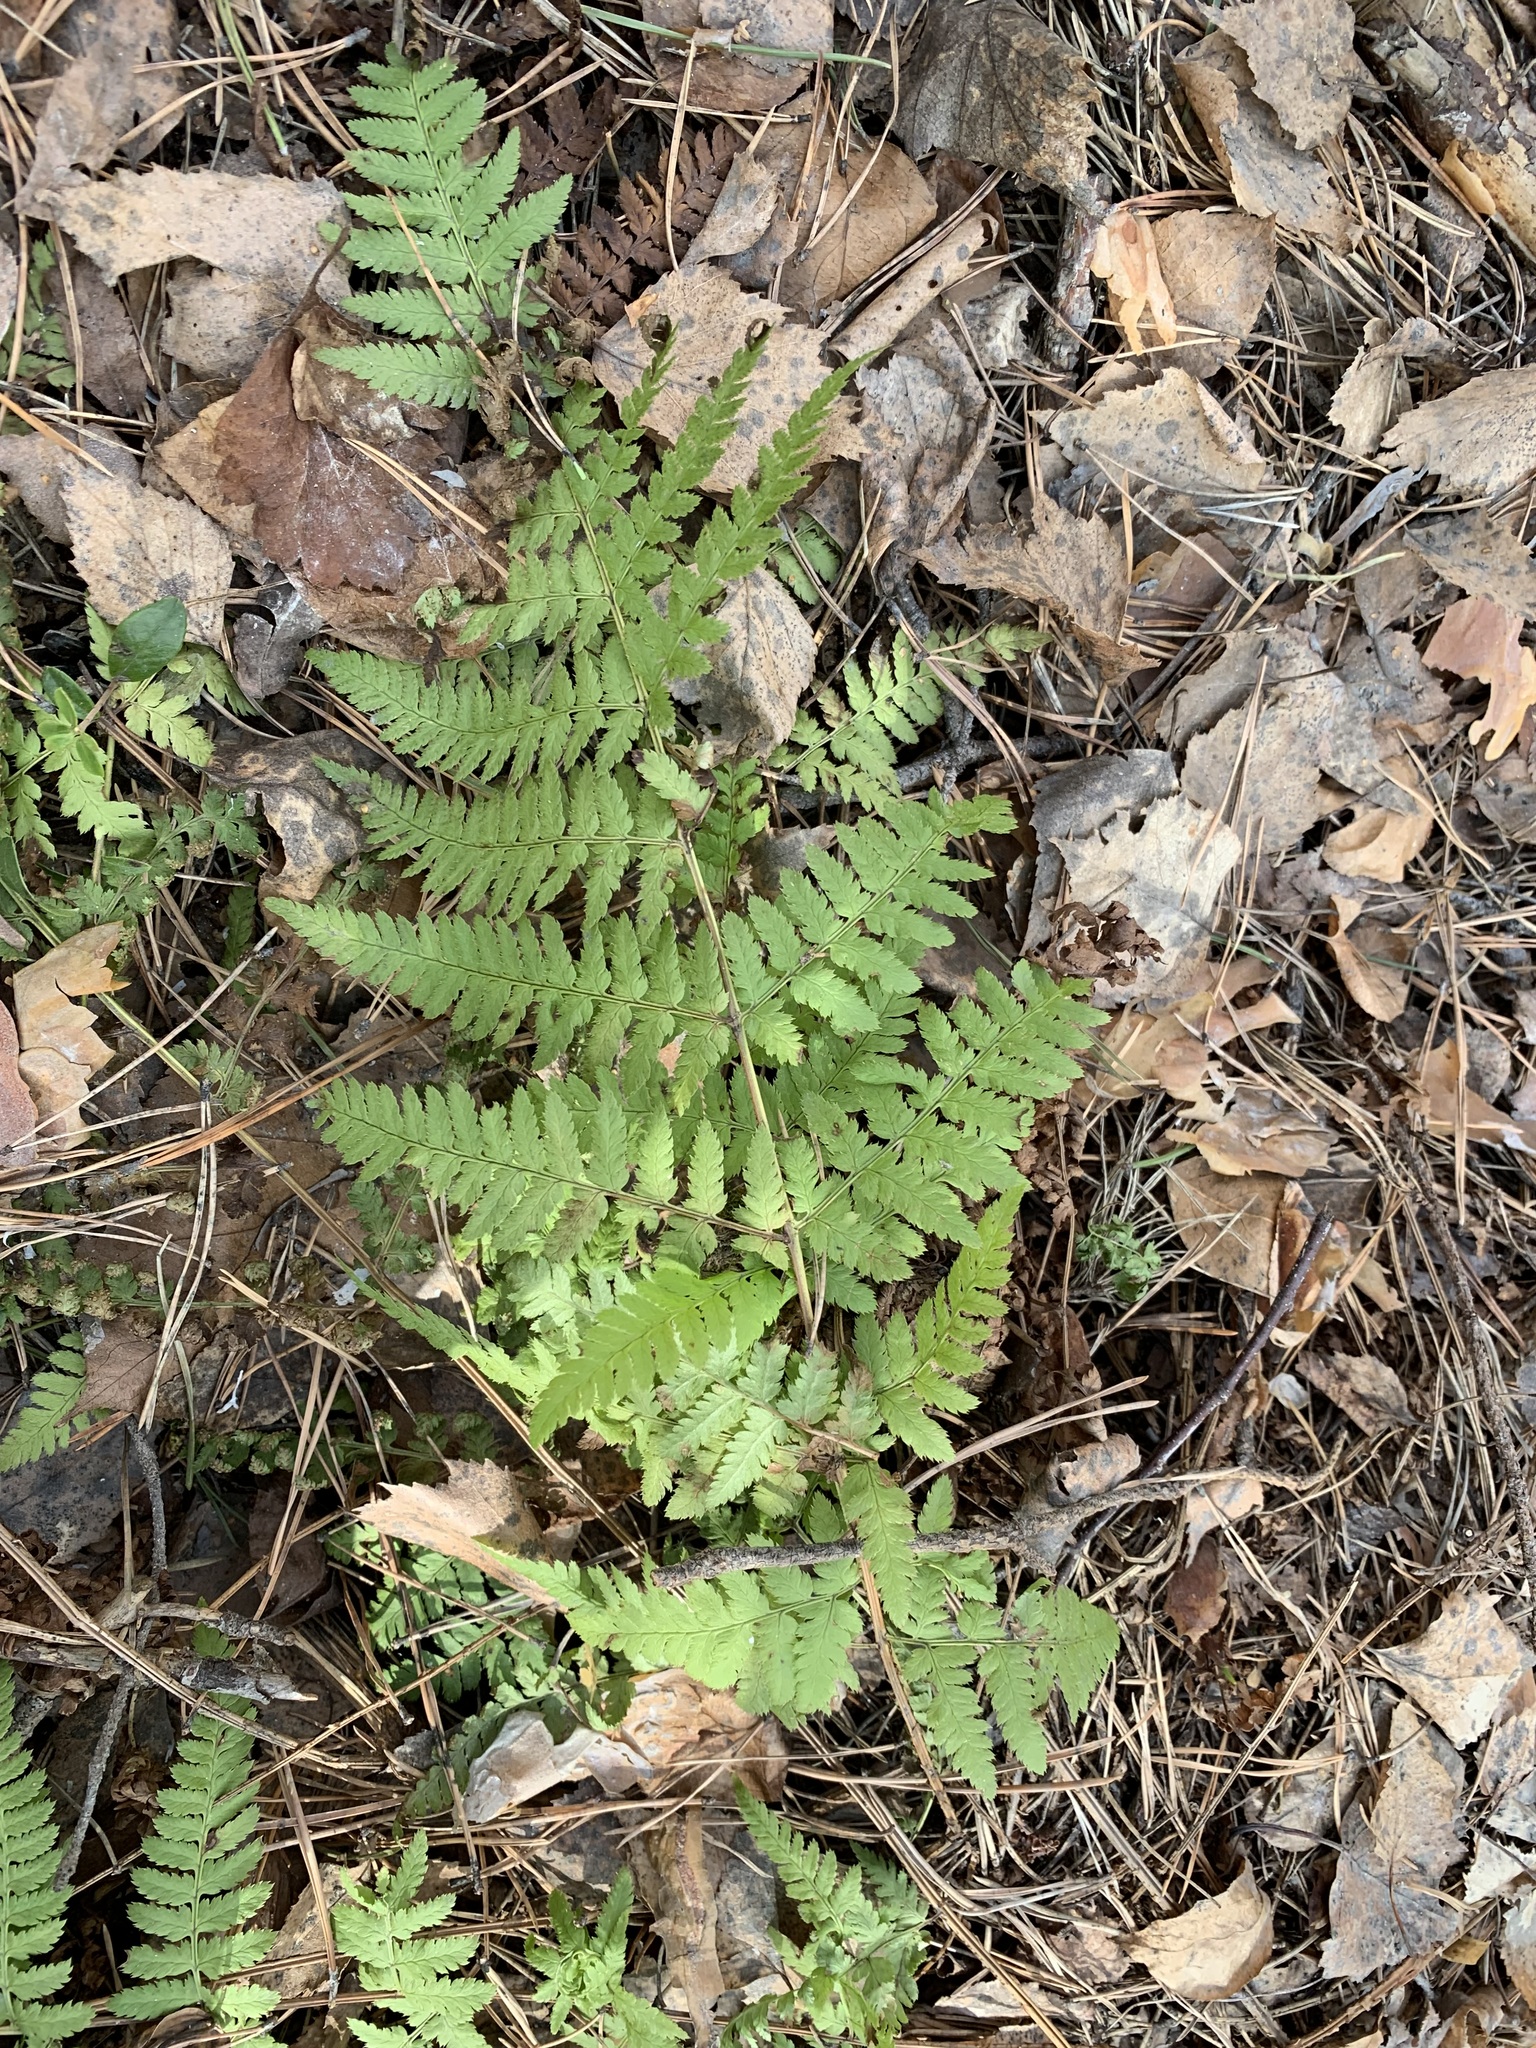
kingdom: Plantae
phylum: Tracheophyta
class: Polypodiopsida
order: Polypodiales
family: Dryopteridaceae
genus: Dryopteris
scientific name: Dryopteris carthusiana
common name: Narrow buckler-fern
